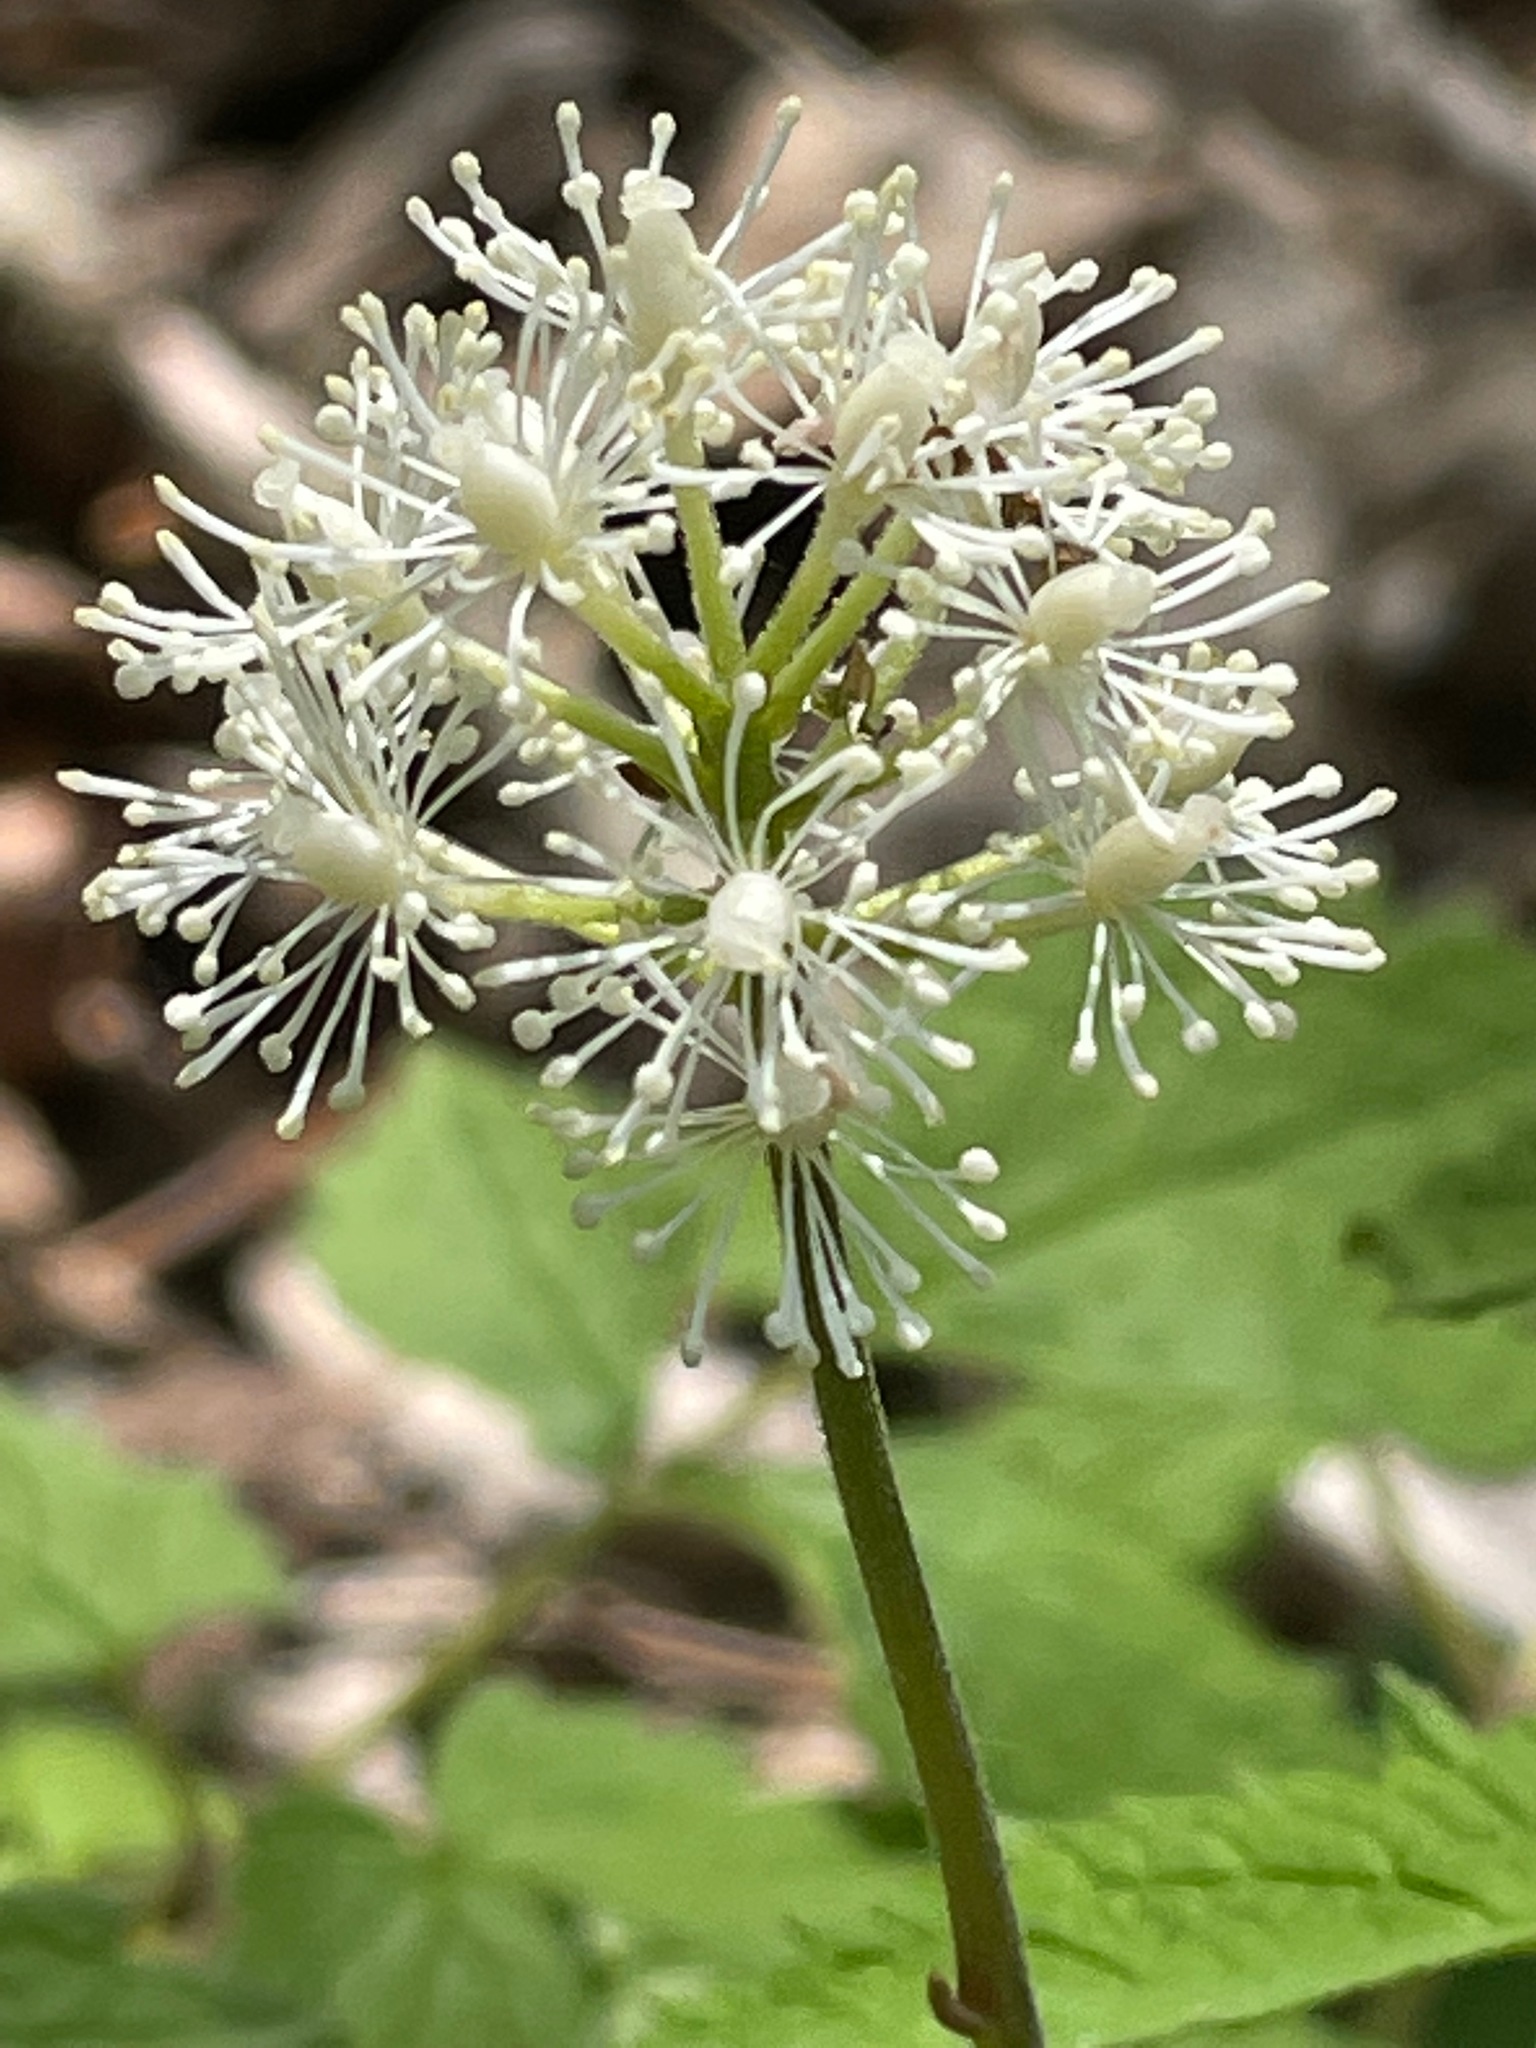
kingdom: Plantae
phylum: Tracheophyta
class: Magnoliopsida
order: Ranunculales
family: Ranunculaceae
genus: Actaea
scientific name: Actaea pachypoda
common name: Doll's-eyes
